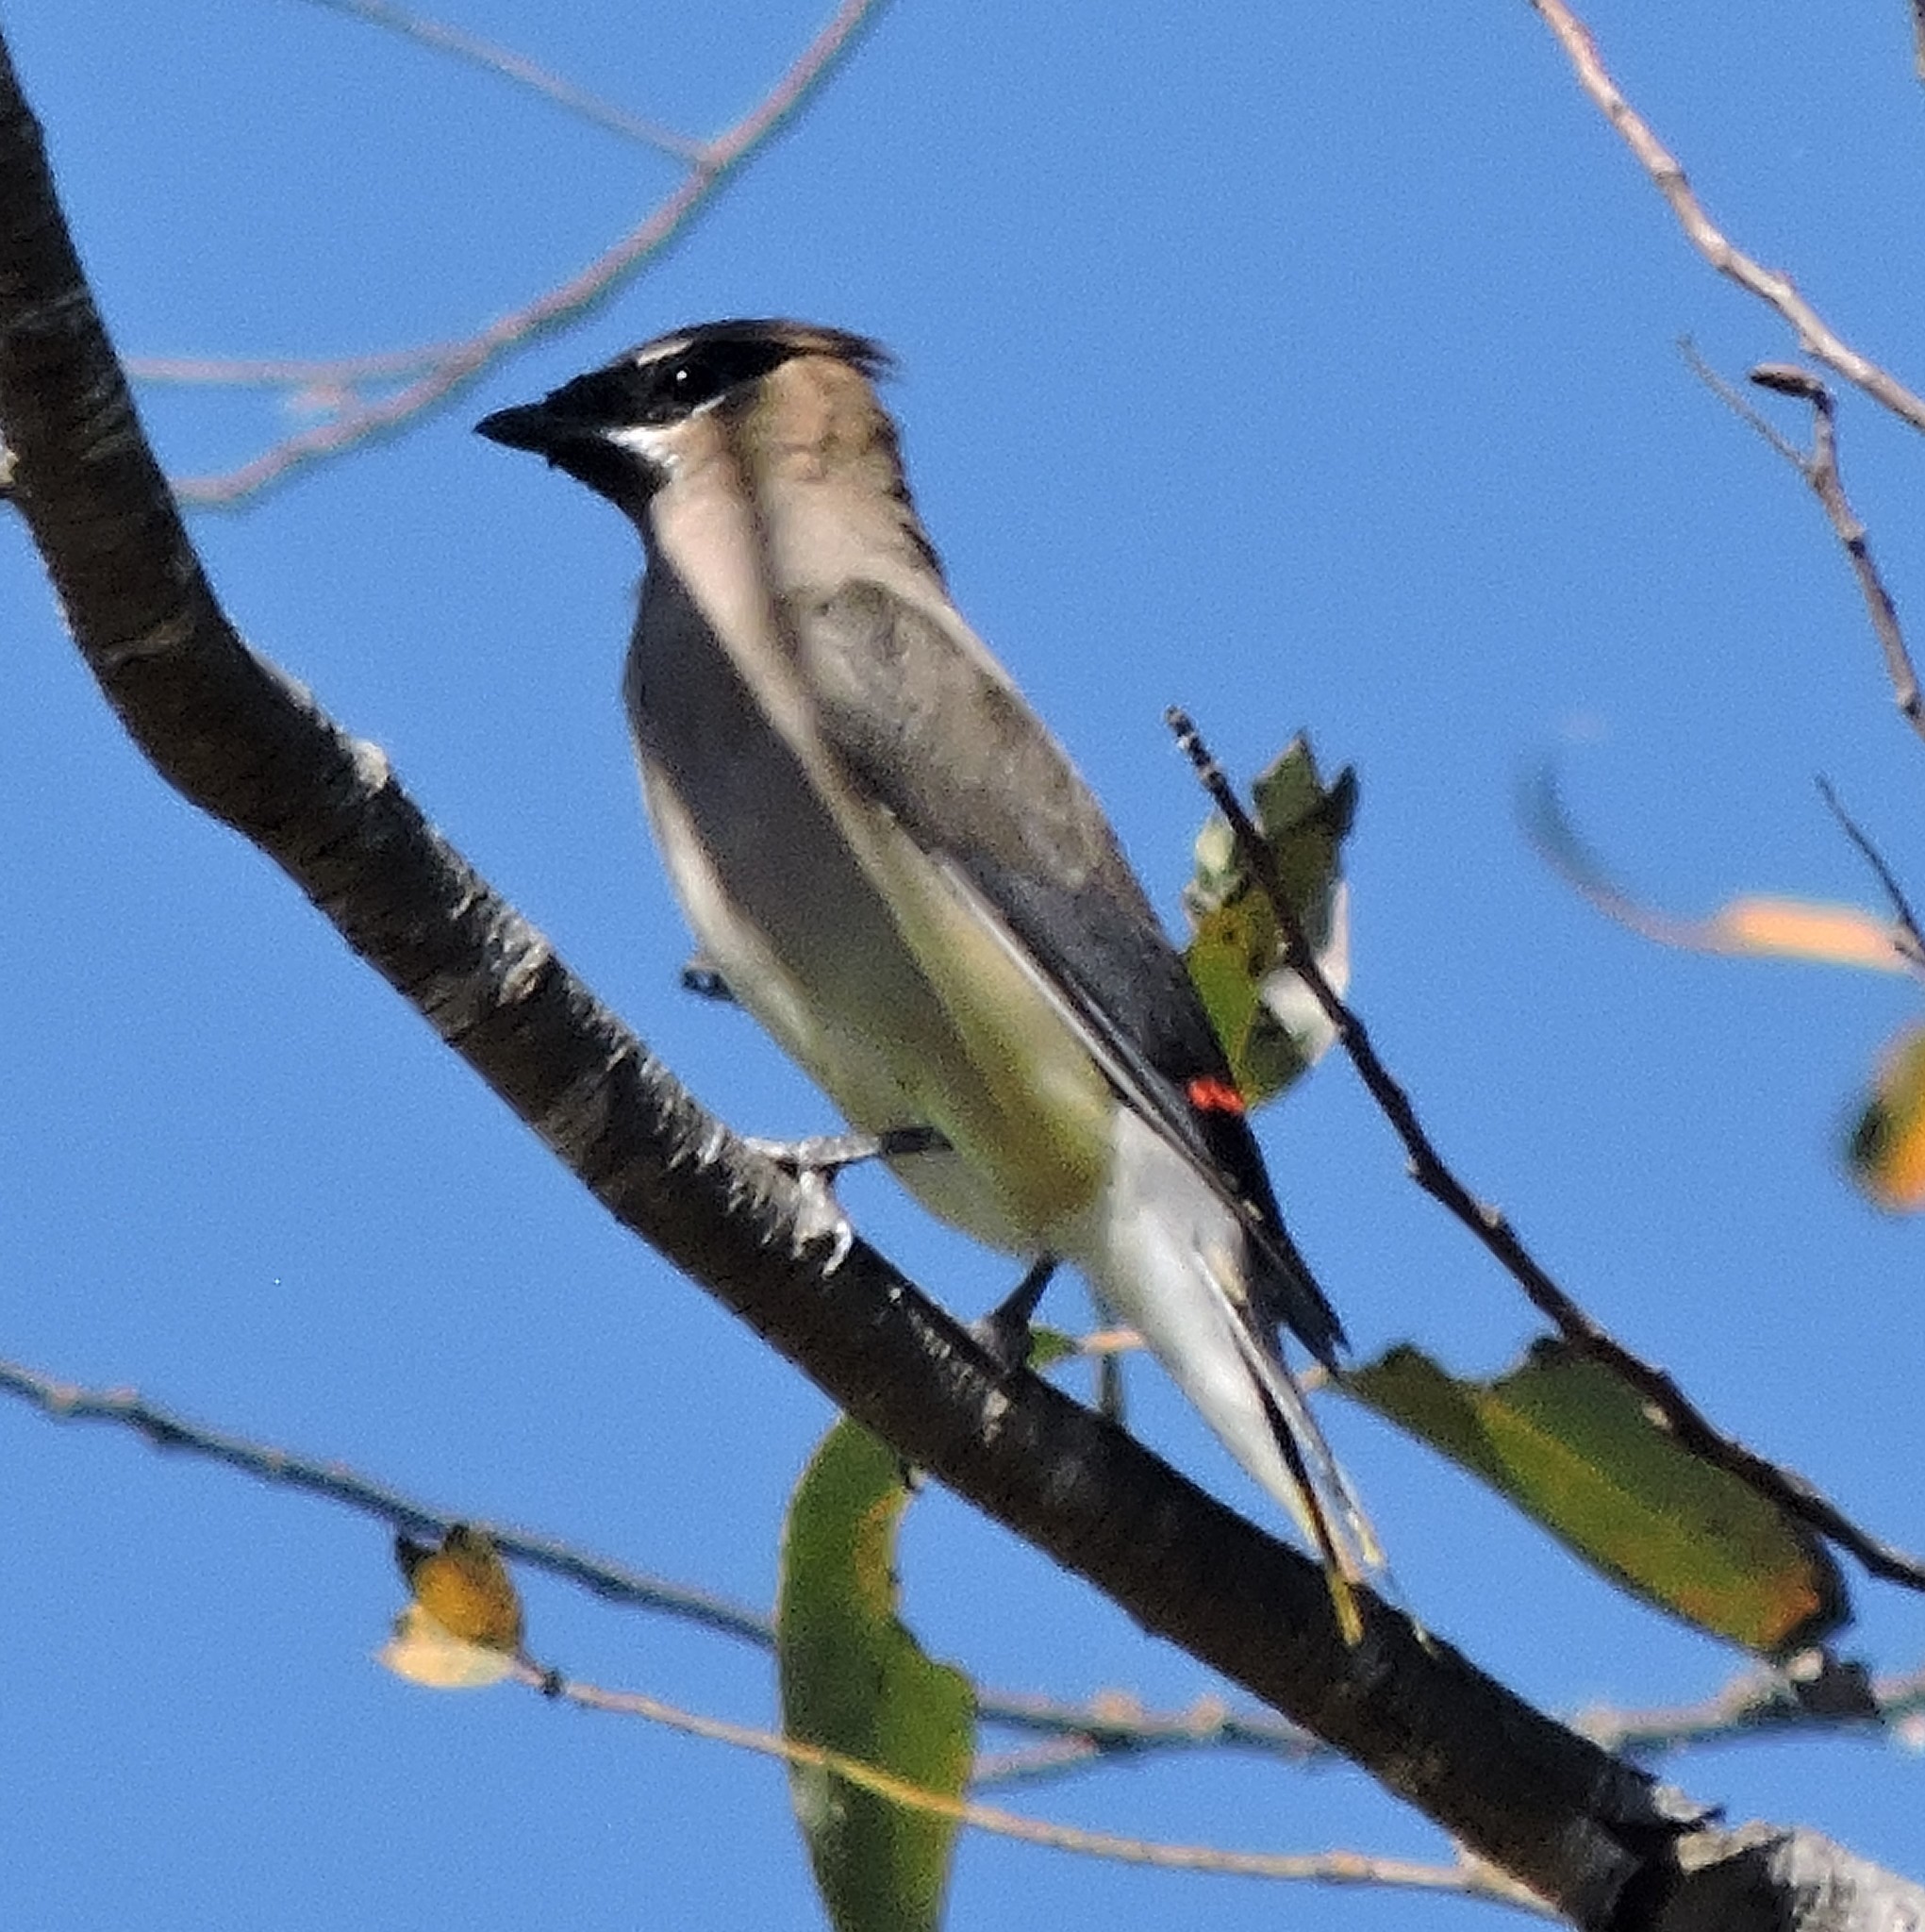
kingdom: Animalia
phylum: Chordata
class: Aves
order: Passeriformes
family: Bombycillidae
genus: Bombycilla
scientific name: Bombycilla cedrorum
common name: Cedar waxwing
